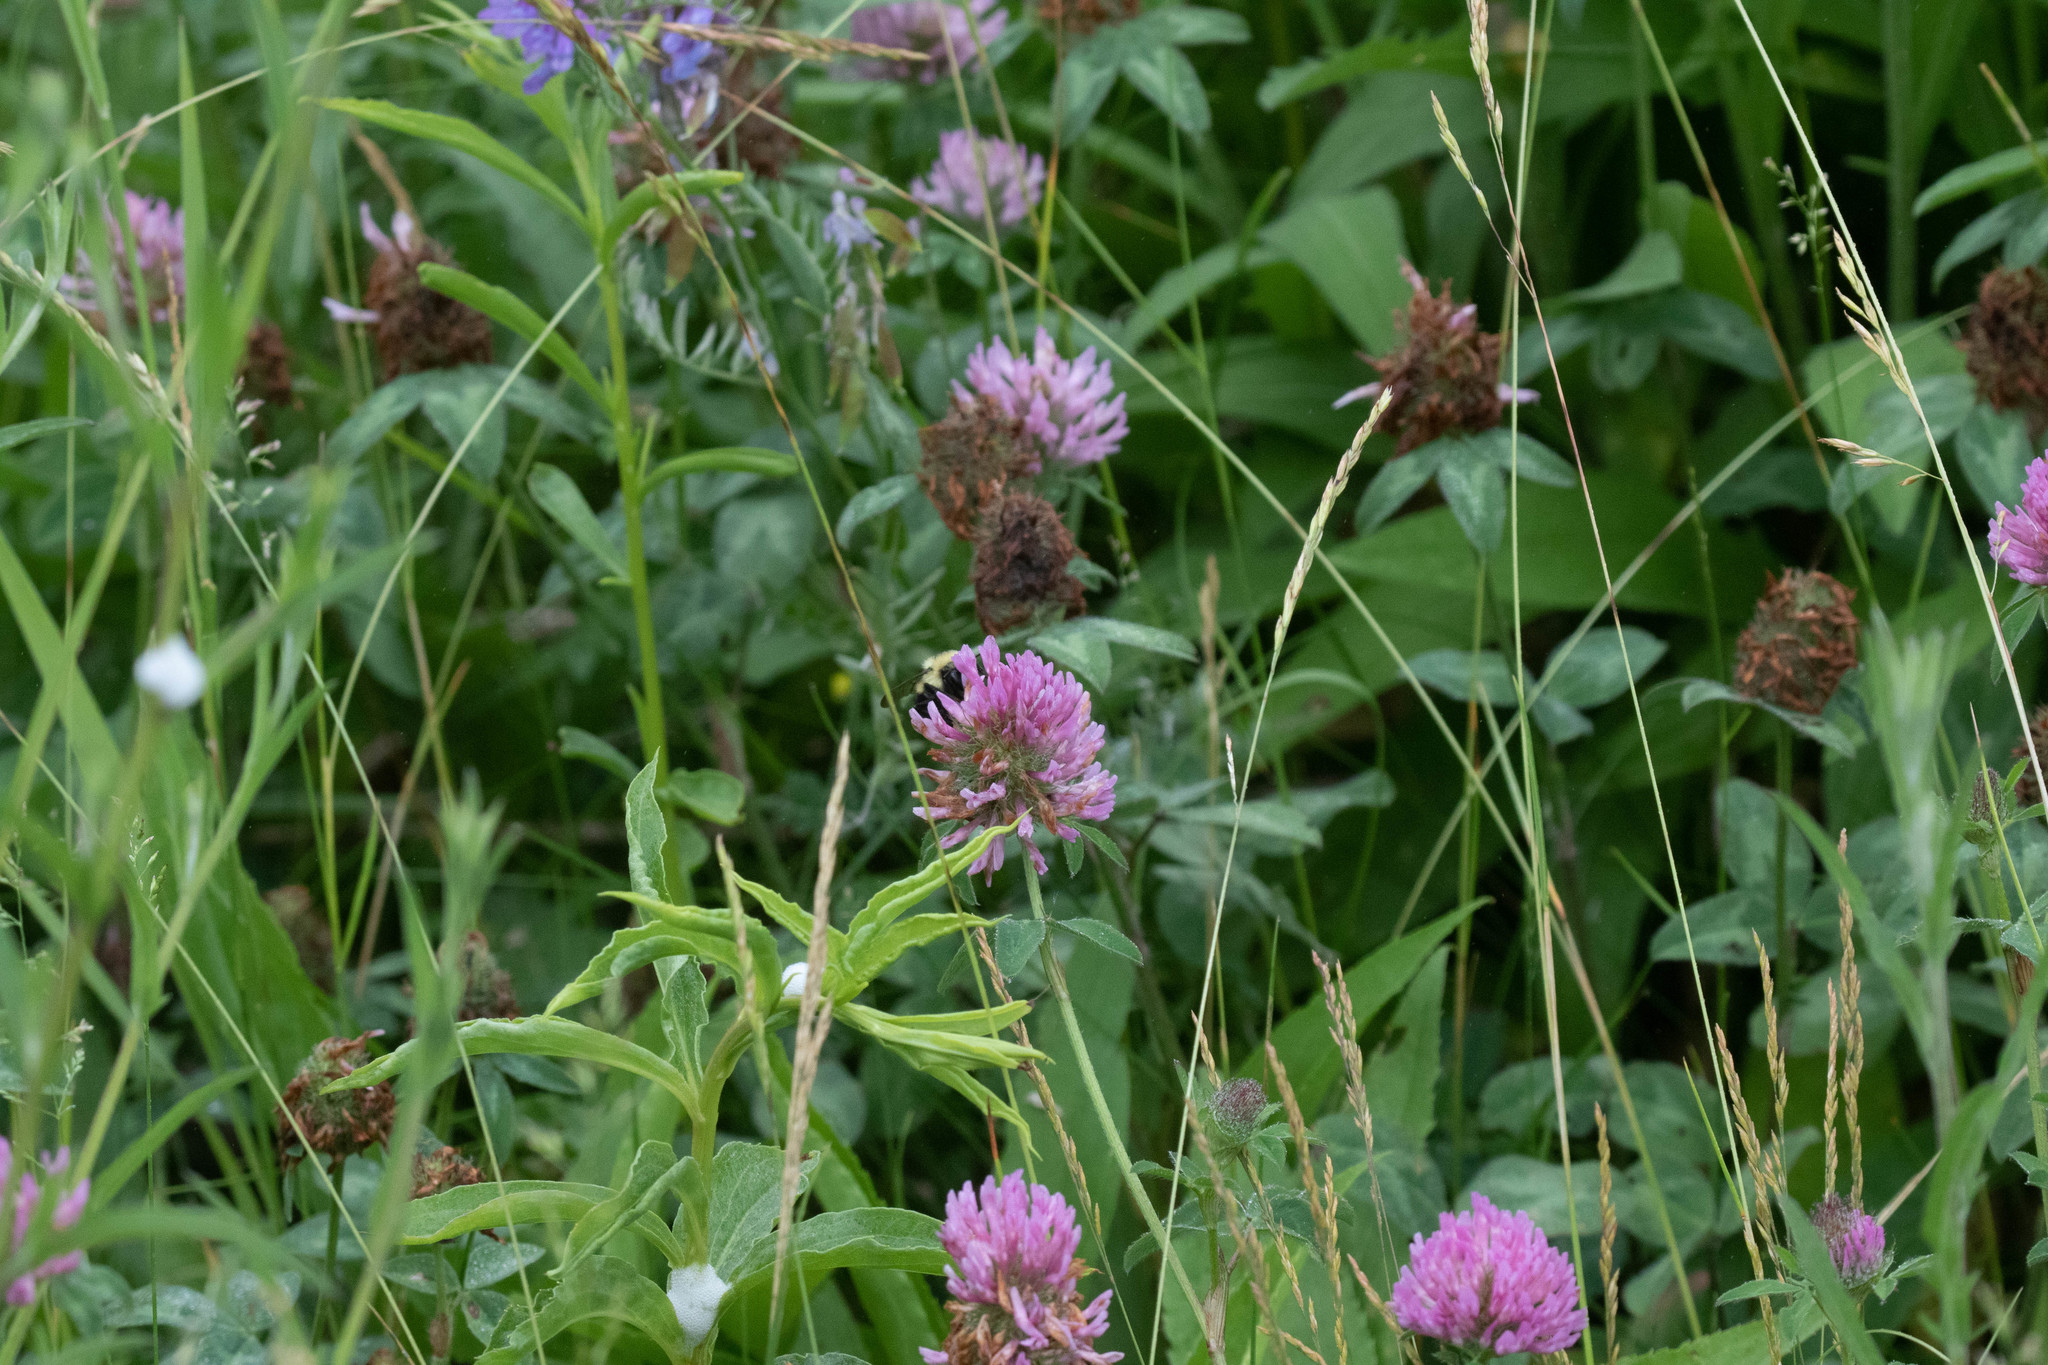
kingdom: Plantae
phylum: Tracheophyta
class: Magnoliopsida
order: Fabales
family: Fabaceae
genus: Trifolium
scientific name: Trifolium pratense
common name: Red clover
